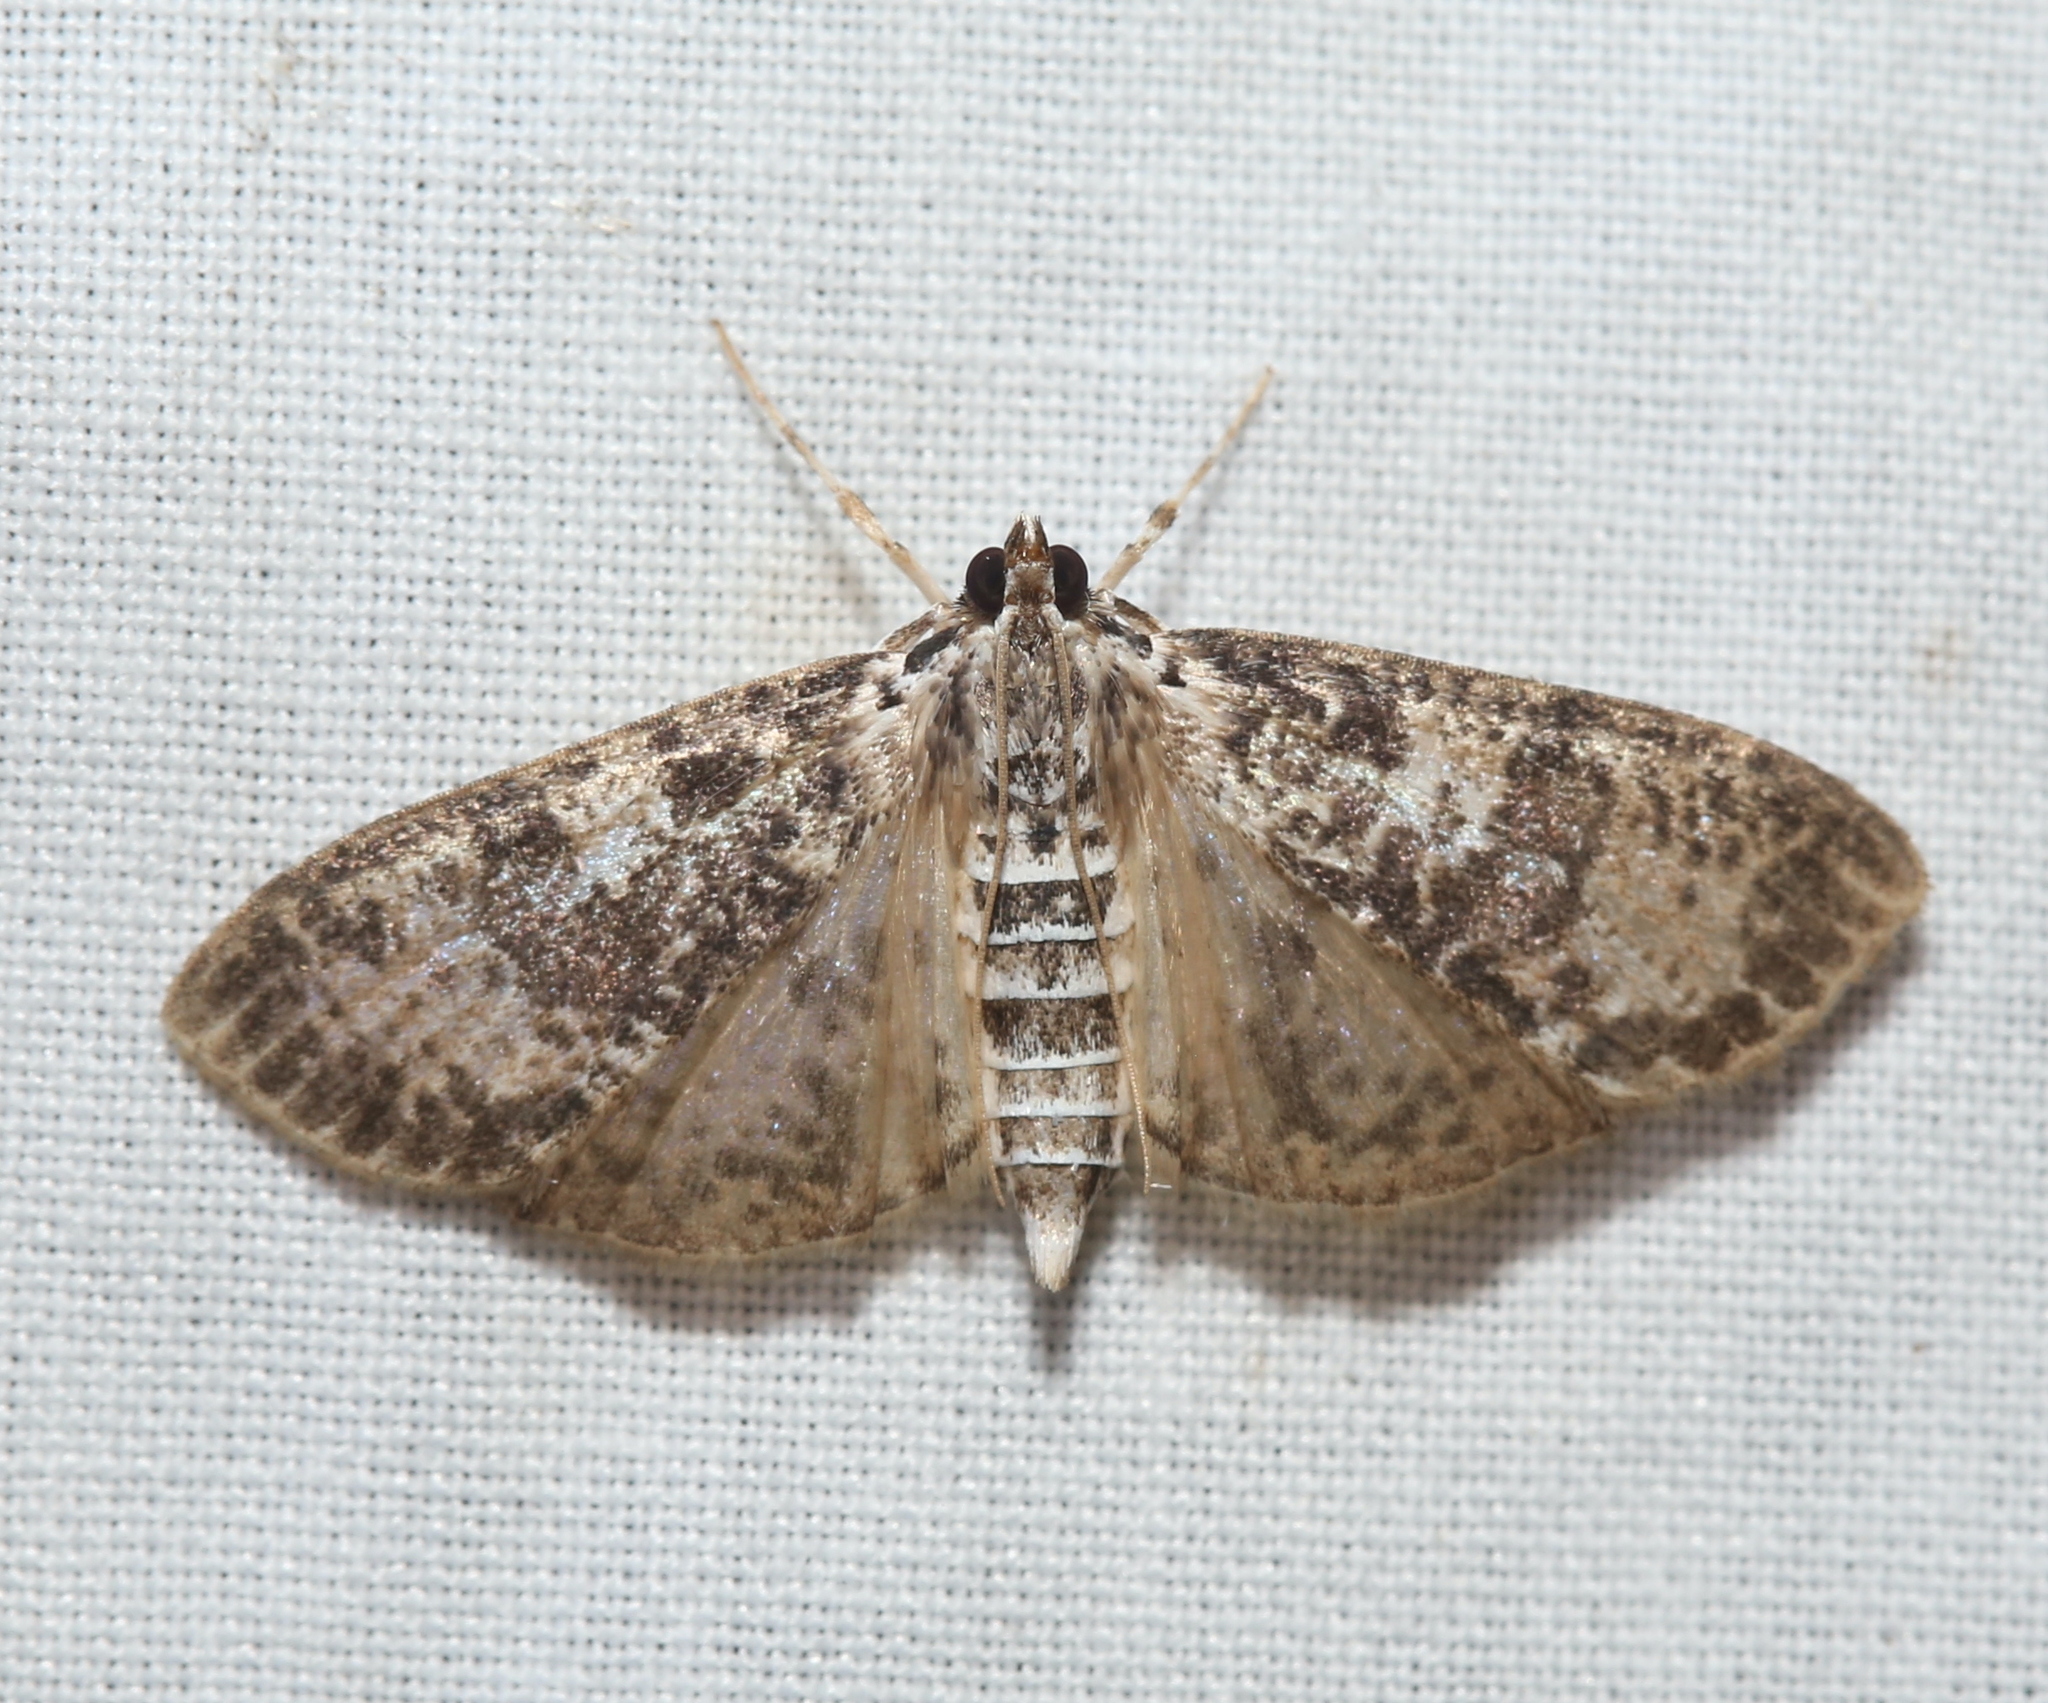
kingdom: Animalia
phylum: Arthropoda
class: Insecta
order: Lepidoptera
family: Crambidae
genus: Palpita
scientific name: Palpita magniferalis
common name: Splendid palpita moth
